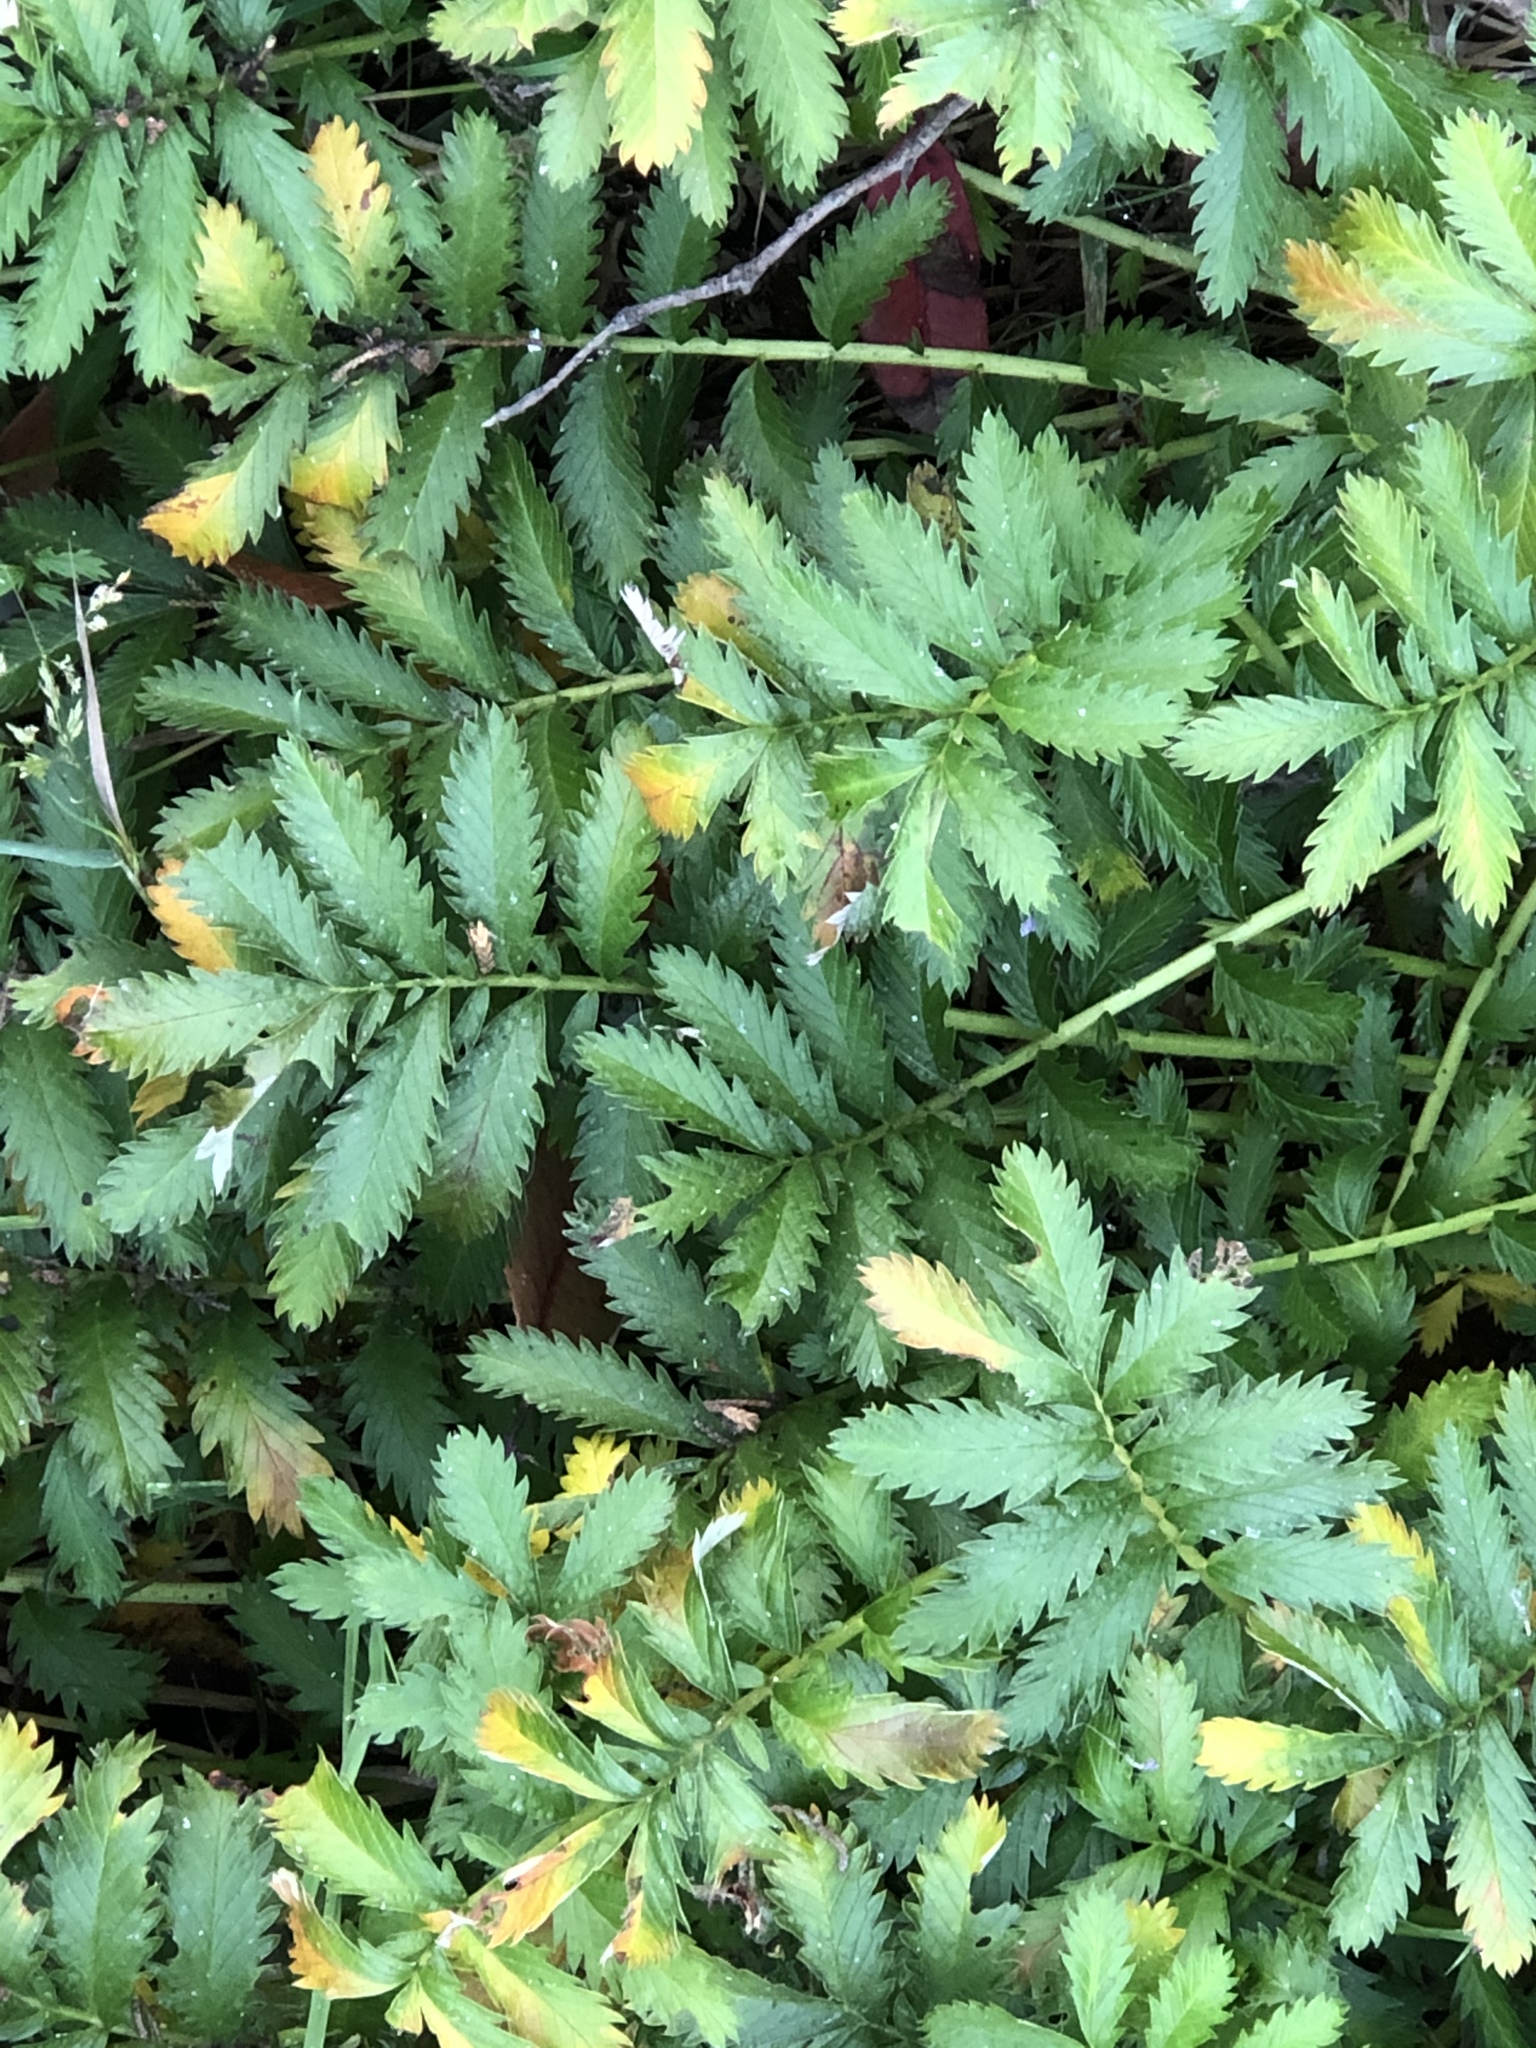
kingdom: Plantae
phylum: Tracheophyta
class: Magnoliopsida
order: Rosales
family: Rosaceae
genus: Argentina
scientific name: Argentina anserina
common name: Common silverweed
